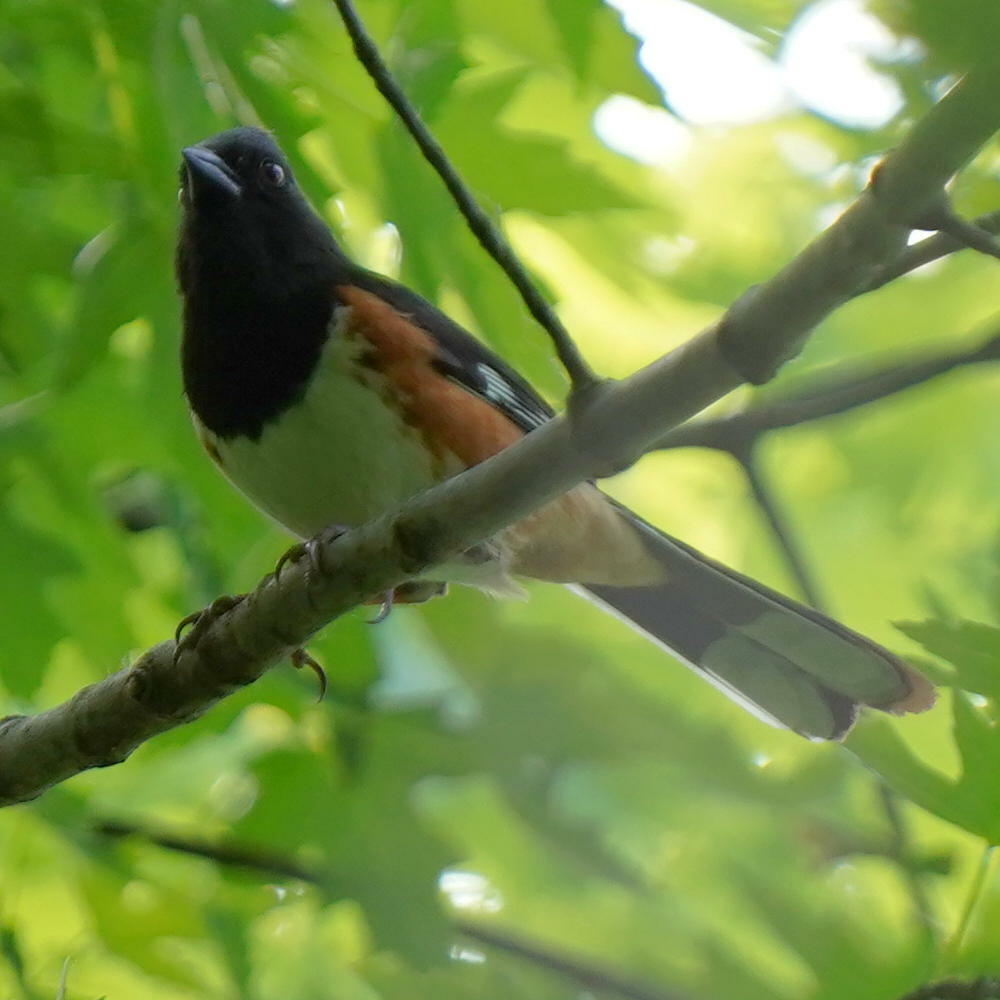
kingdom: Animalia
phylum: Chordata
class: Aves
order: Passeriformes
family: Passerellidae
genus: Pipilo
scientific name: Pipilo erythrophthalmus
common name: Eastern towhee
